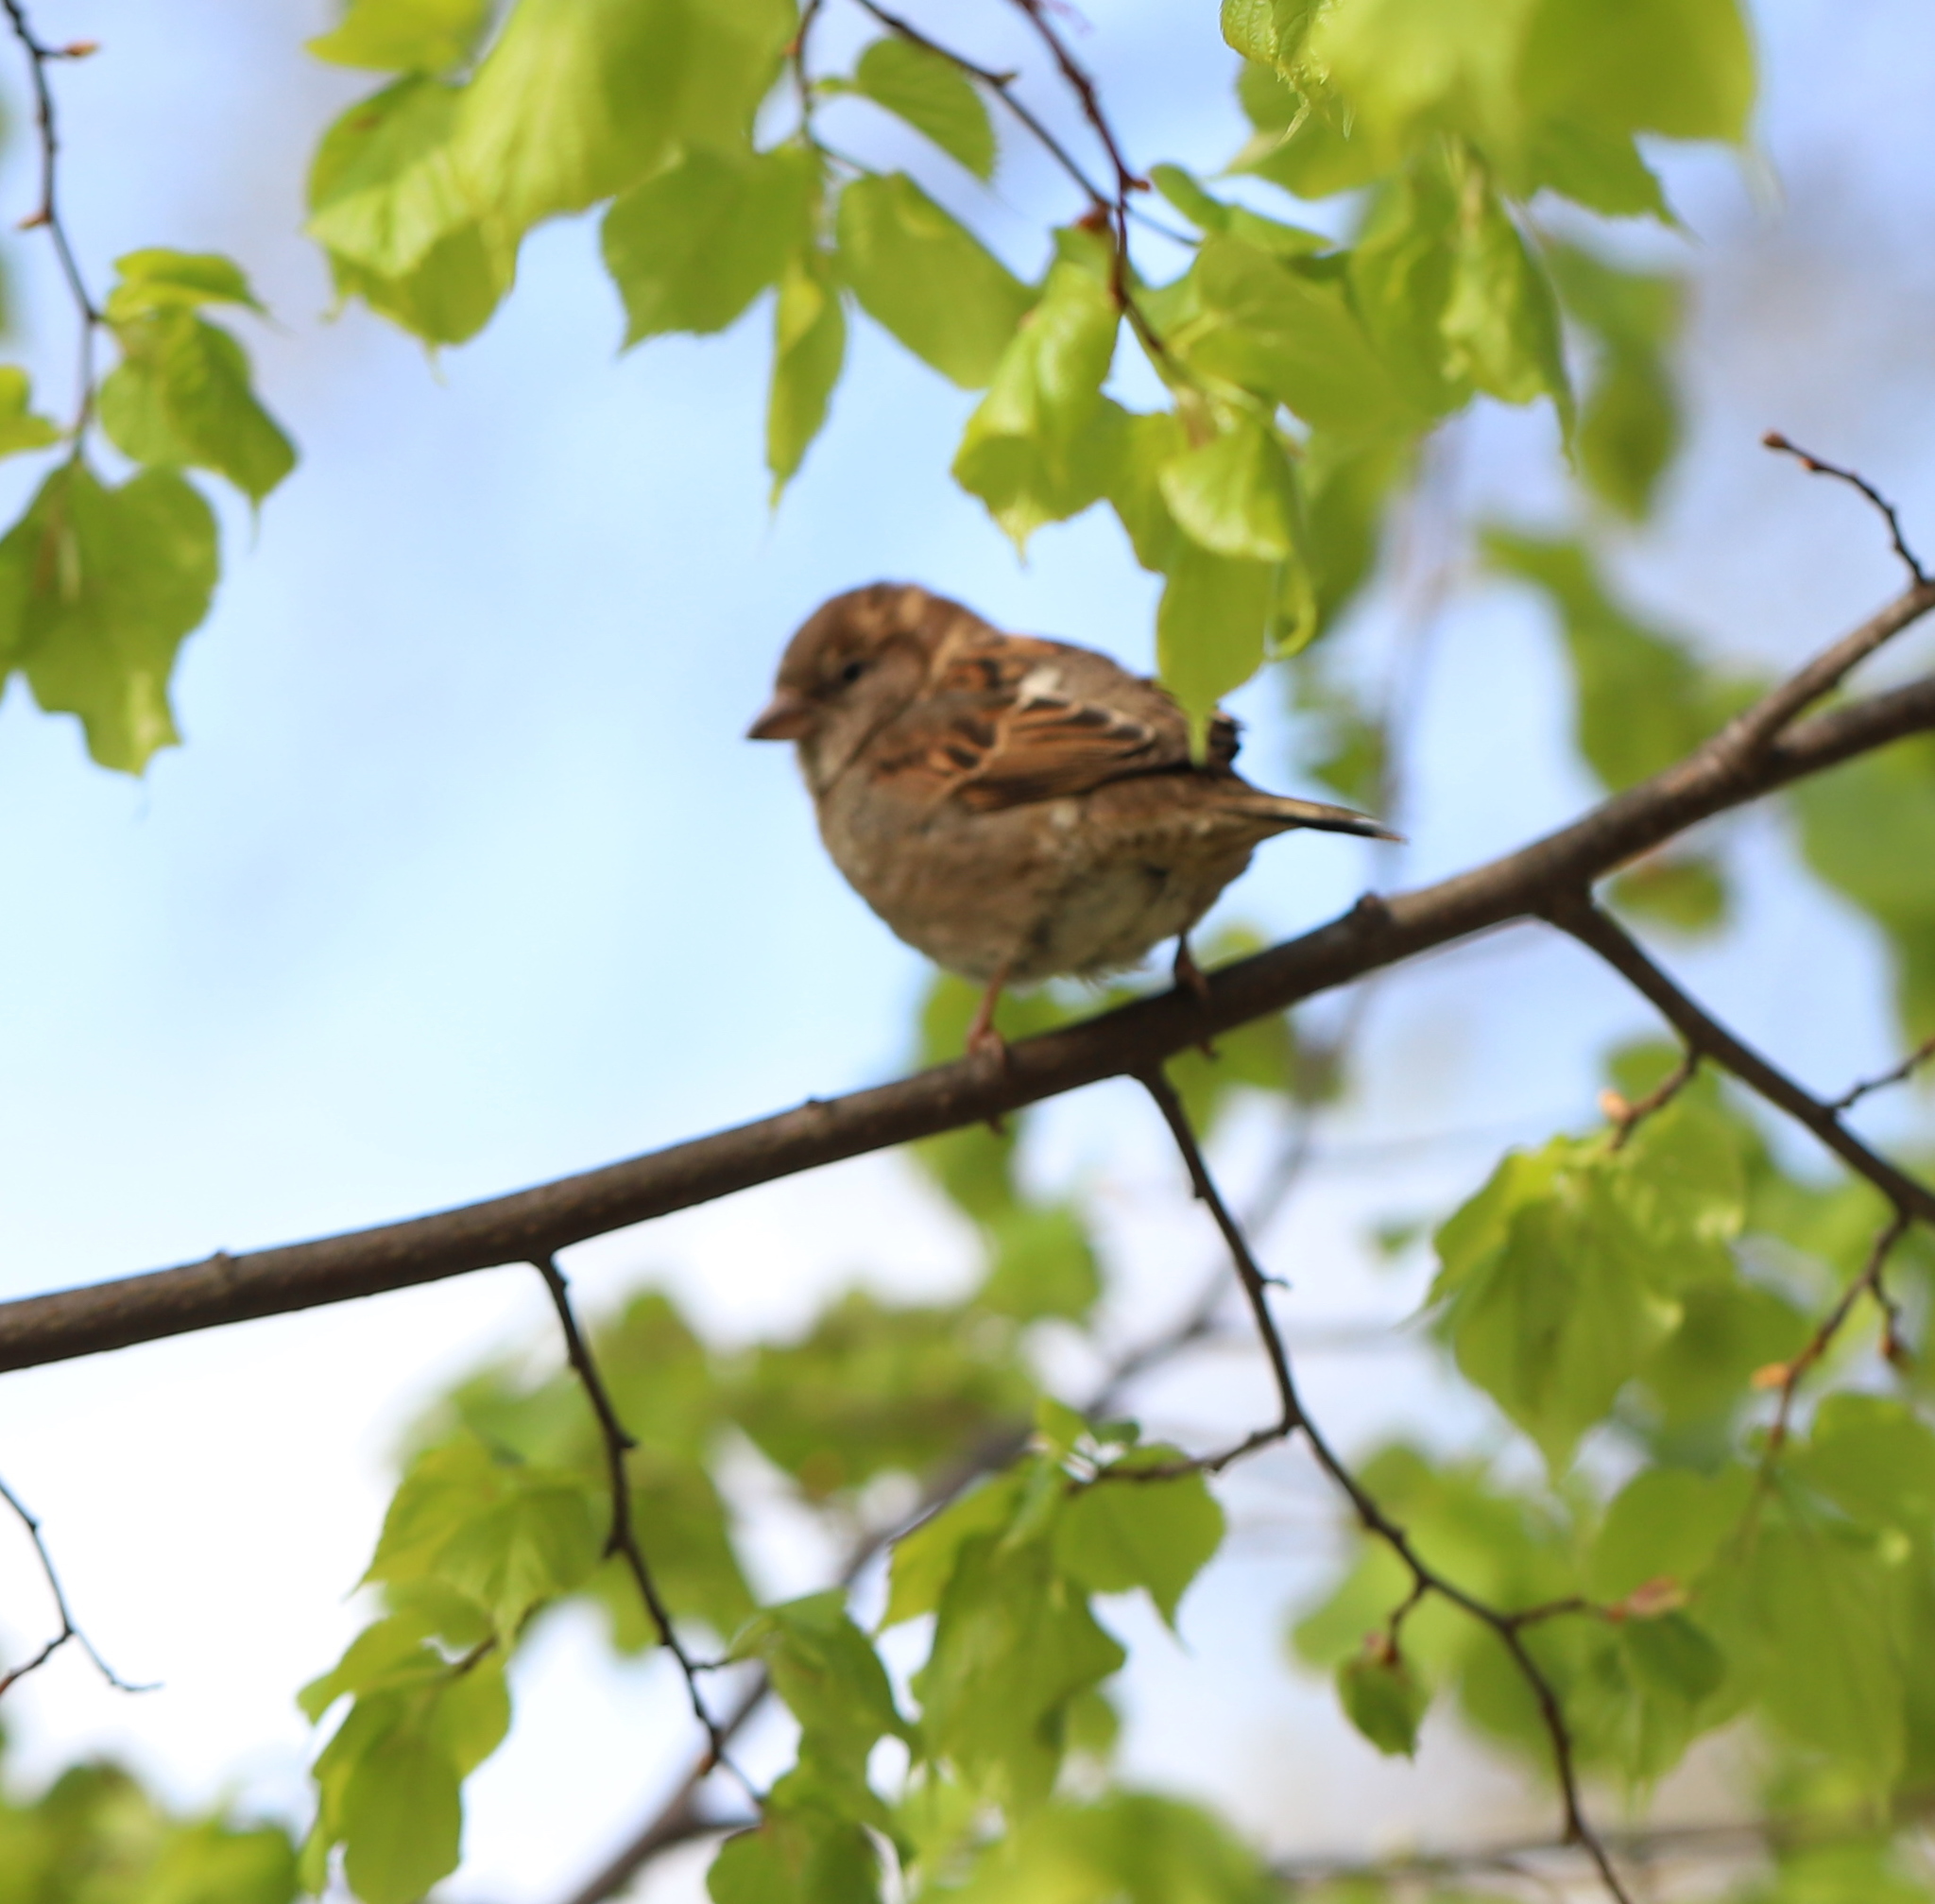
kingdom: Animalia
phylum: Chordata
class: Aves
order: Passeriformes
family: Passeridae
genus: Passer
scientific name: Passer domesticus
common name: House sparrow
